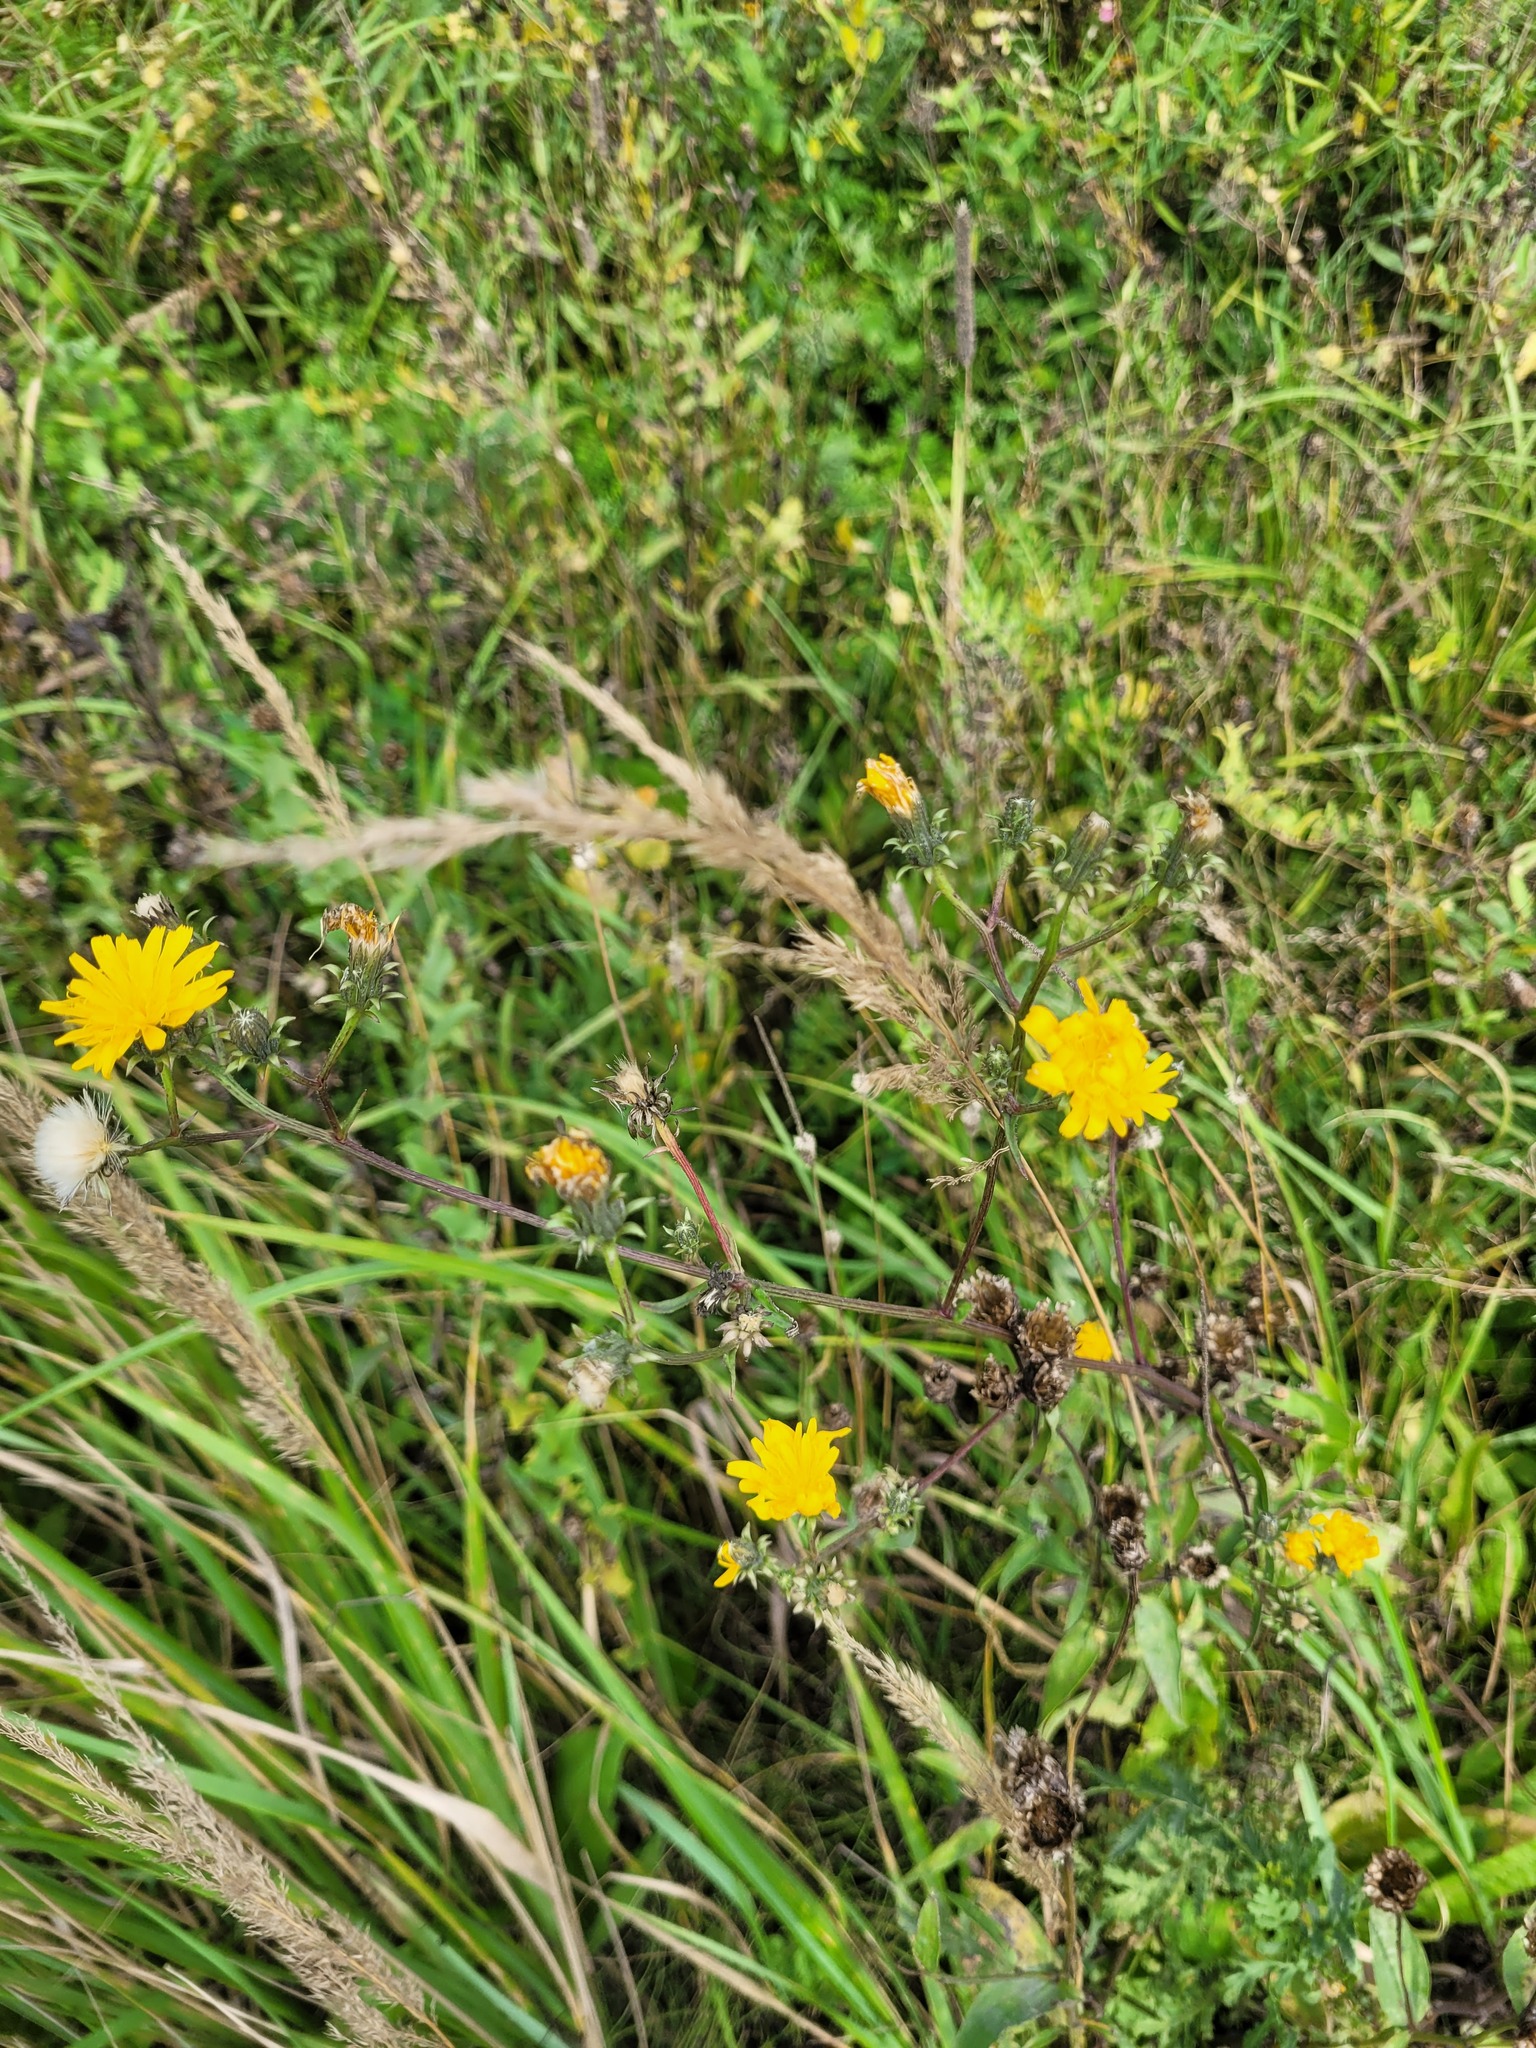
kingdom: Plantae
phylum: Tracheophyta
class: Magnoliopsida
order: Asterales
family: Asteraceae
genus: Picris
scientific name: Picris hieracioides
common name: Hawkweed oxtongue
